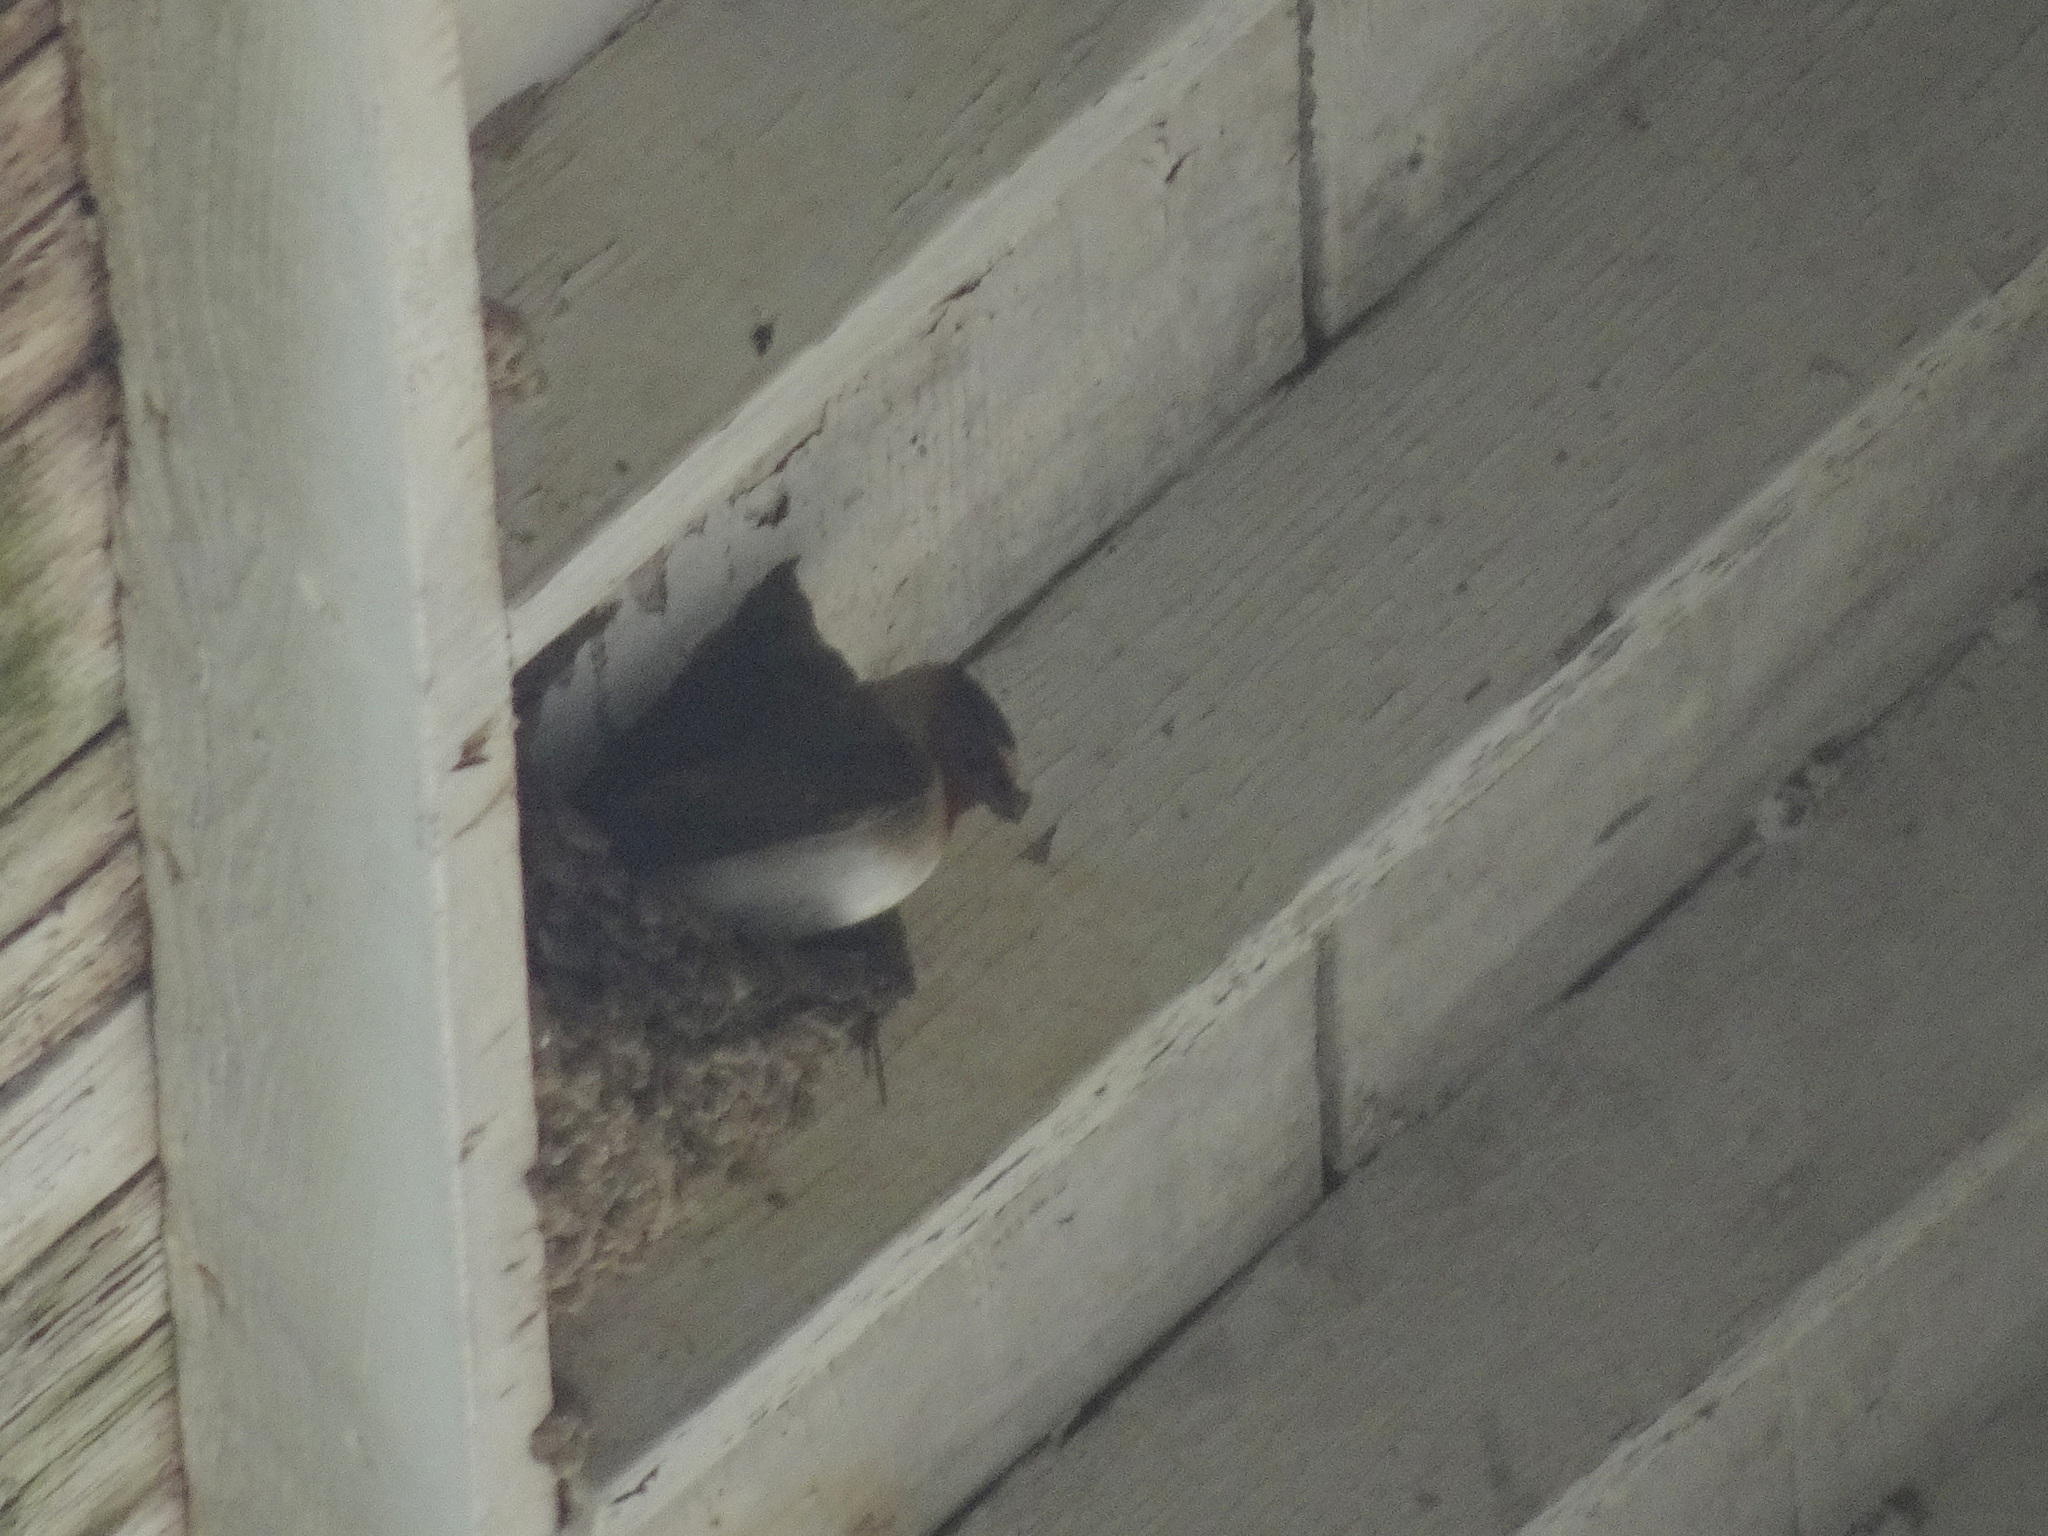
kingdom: Animalia
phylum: Chordata
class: Aves
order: Passeriformes
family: Hirundinidae
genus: Petrochelidon
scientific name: Petrochelidon pyrrhonota
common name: American cliff swallow
